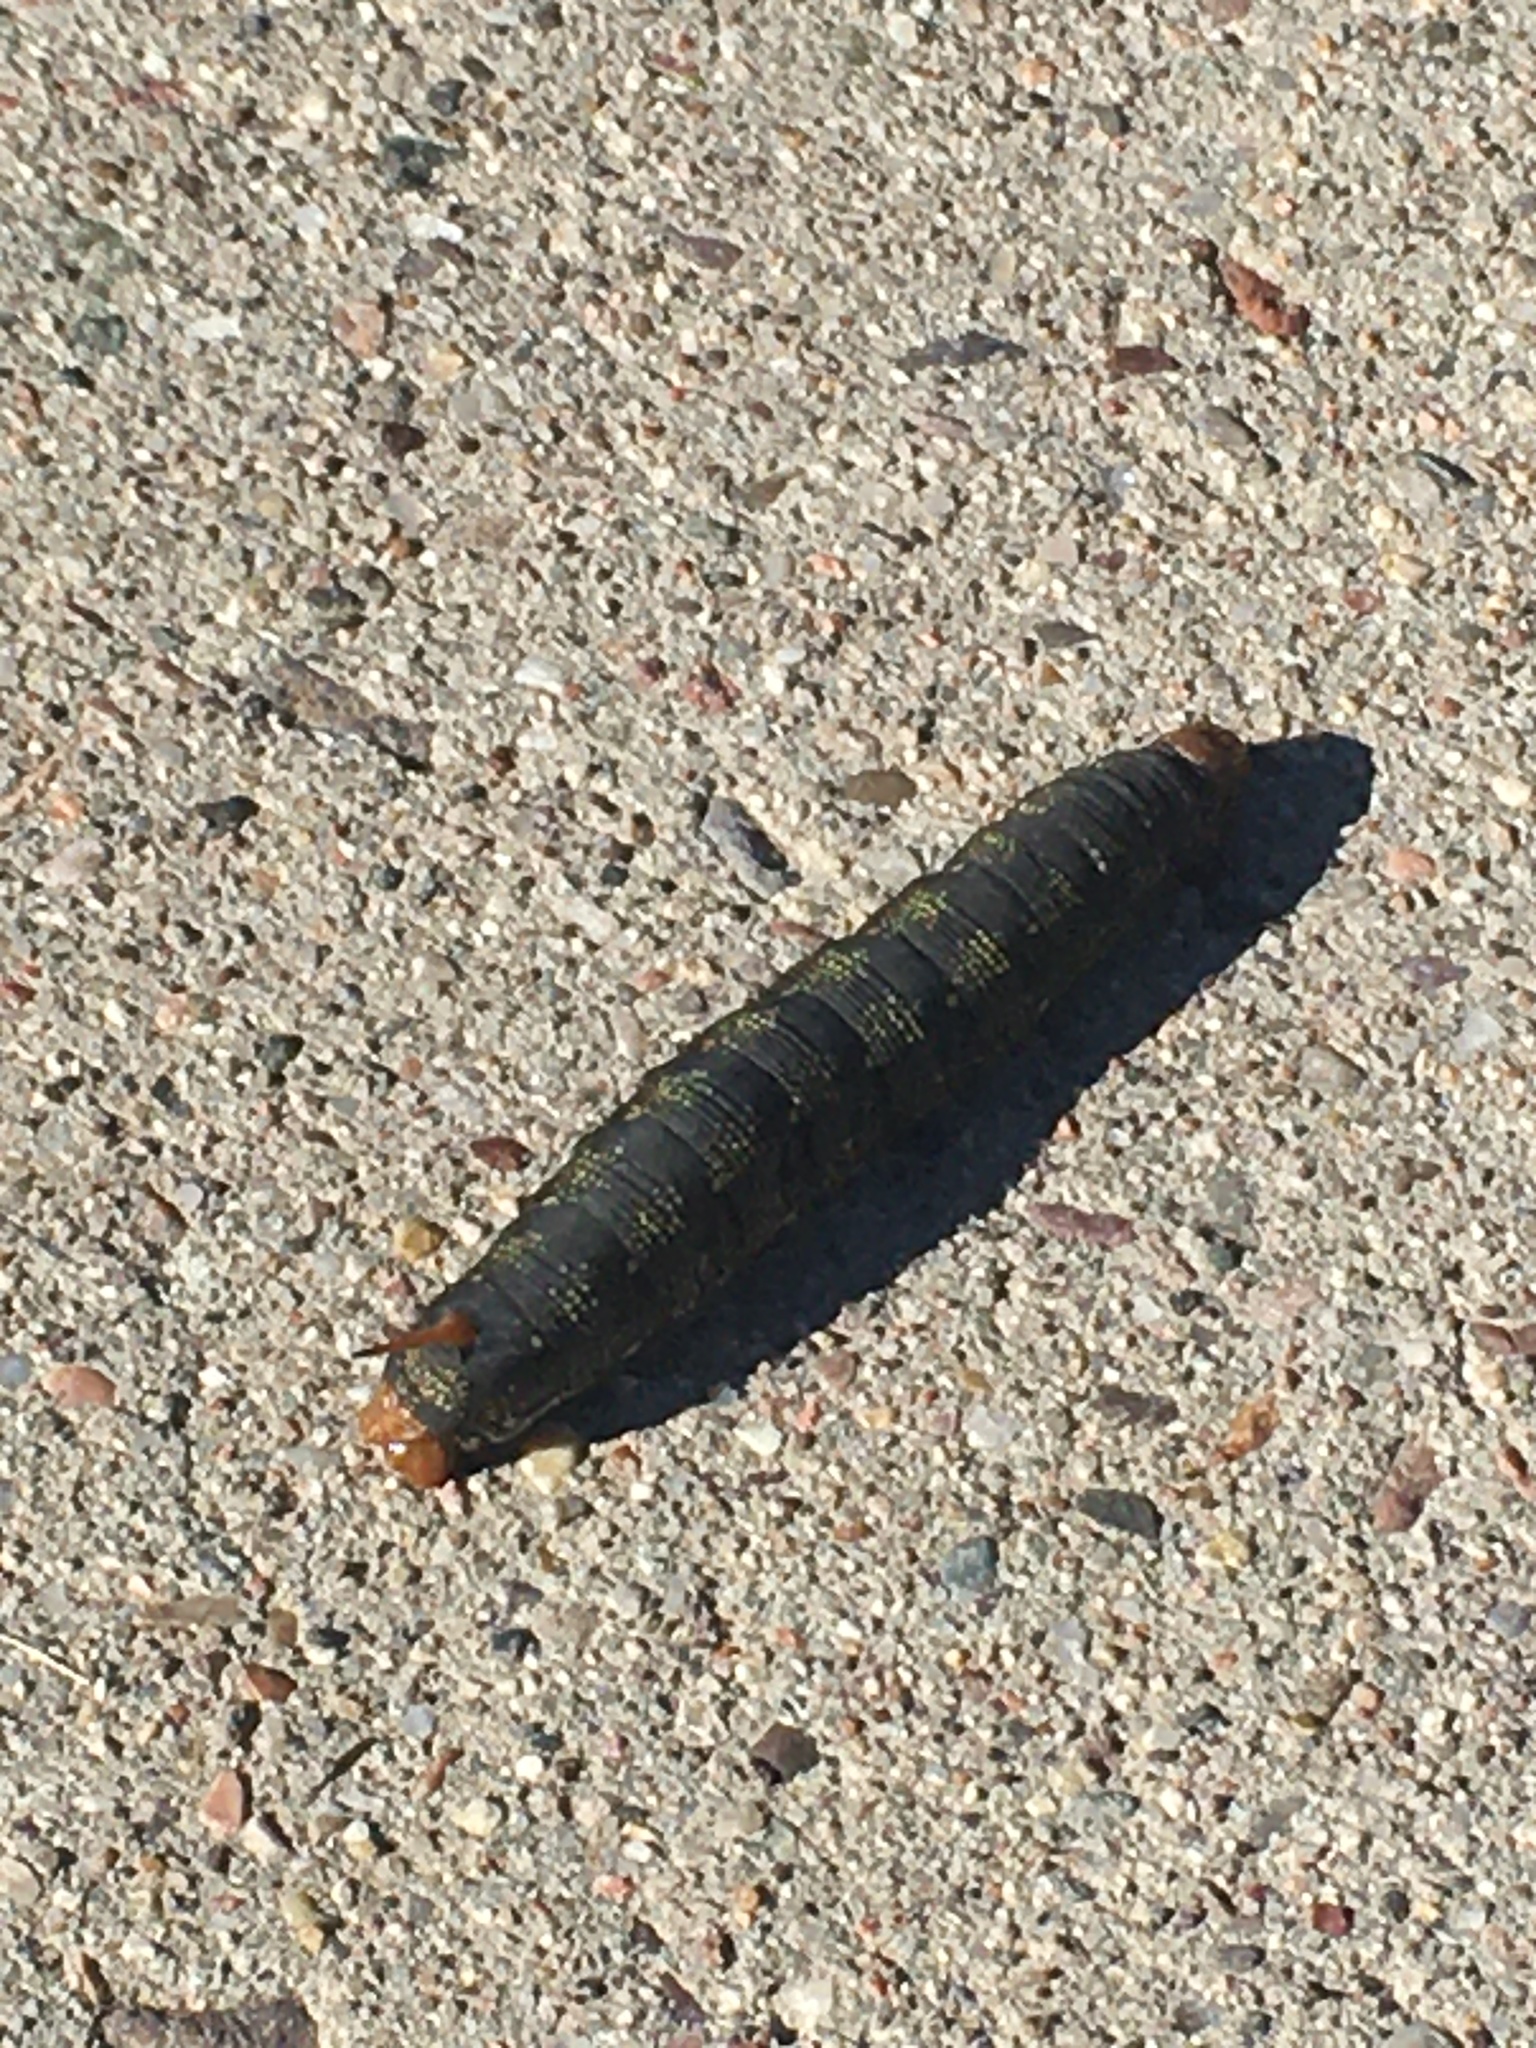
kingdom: Animalia
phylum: Arthropoda
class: Insecta
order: Lepidoptera
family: Sphingidae
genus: Hyles
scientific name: Hyles lineata
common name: White-lined sphinx
